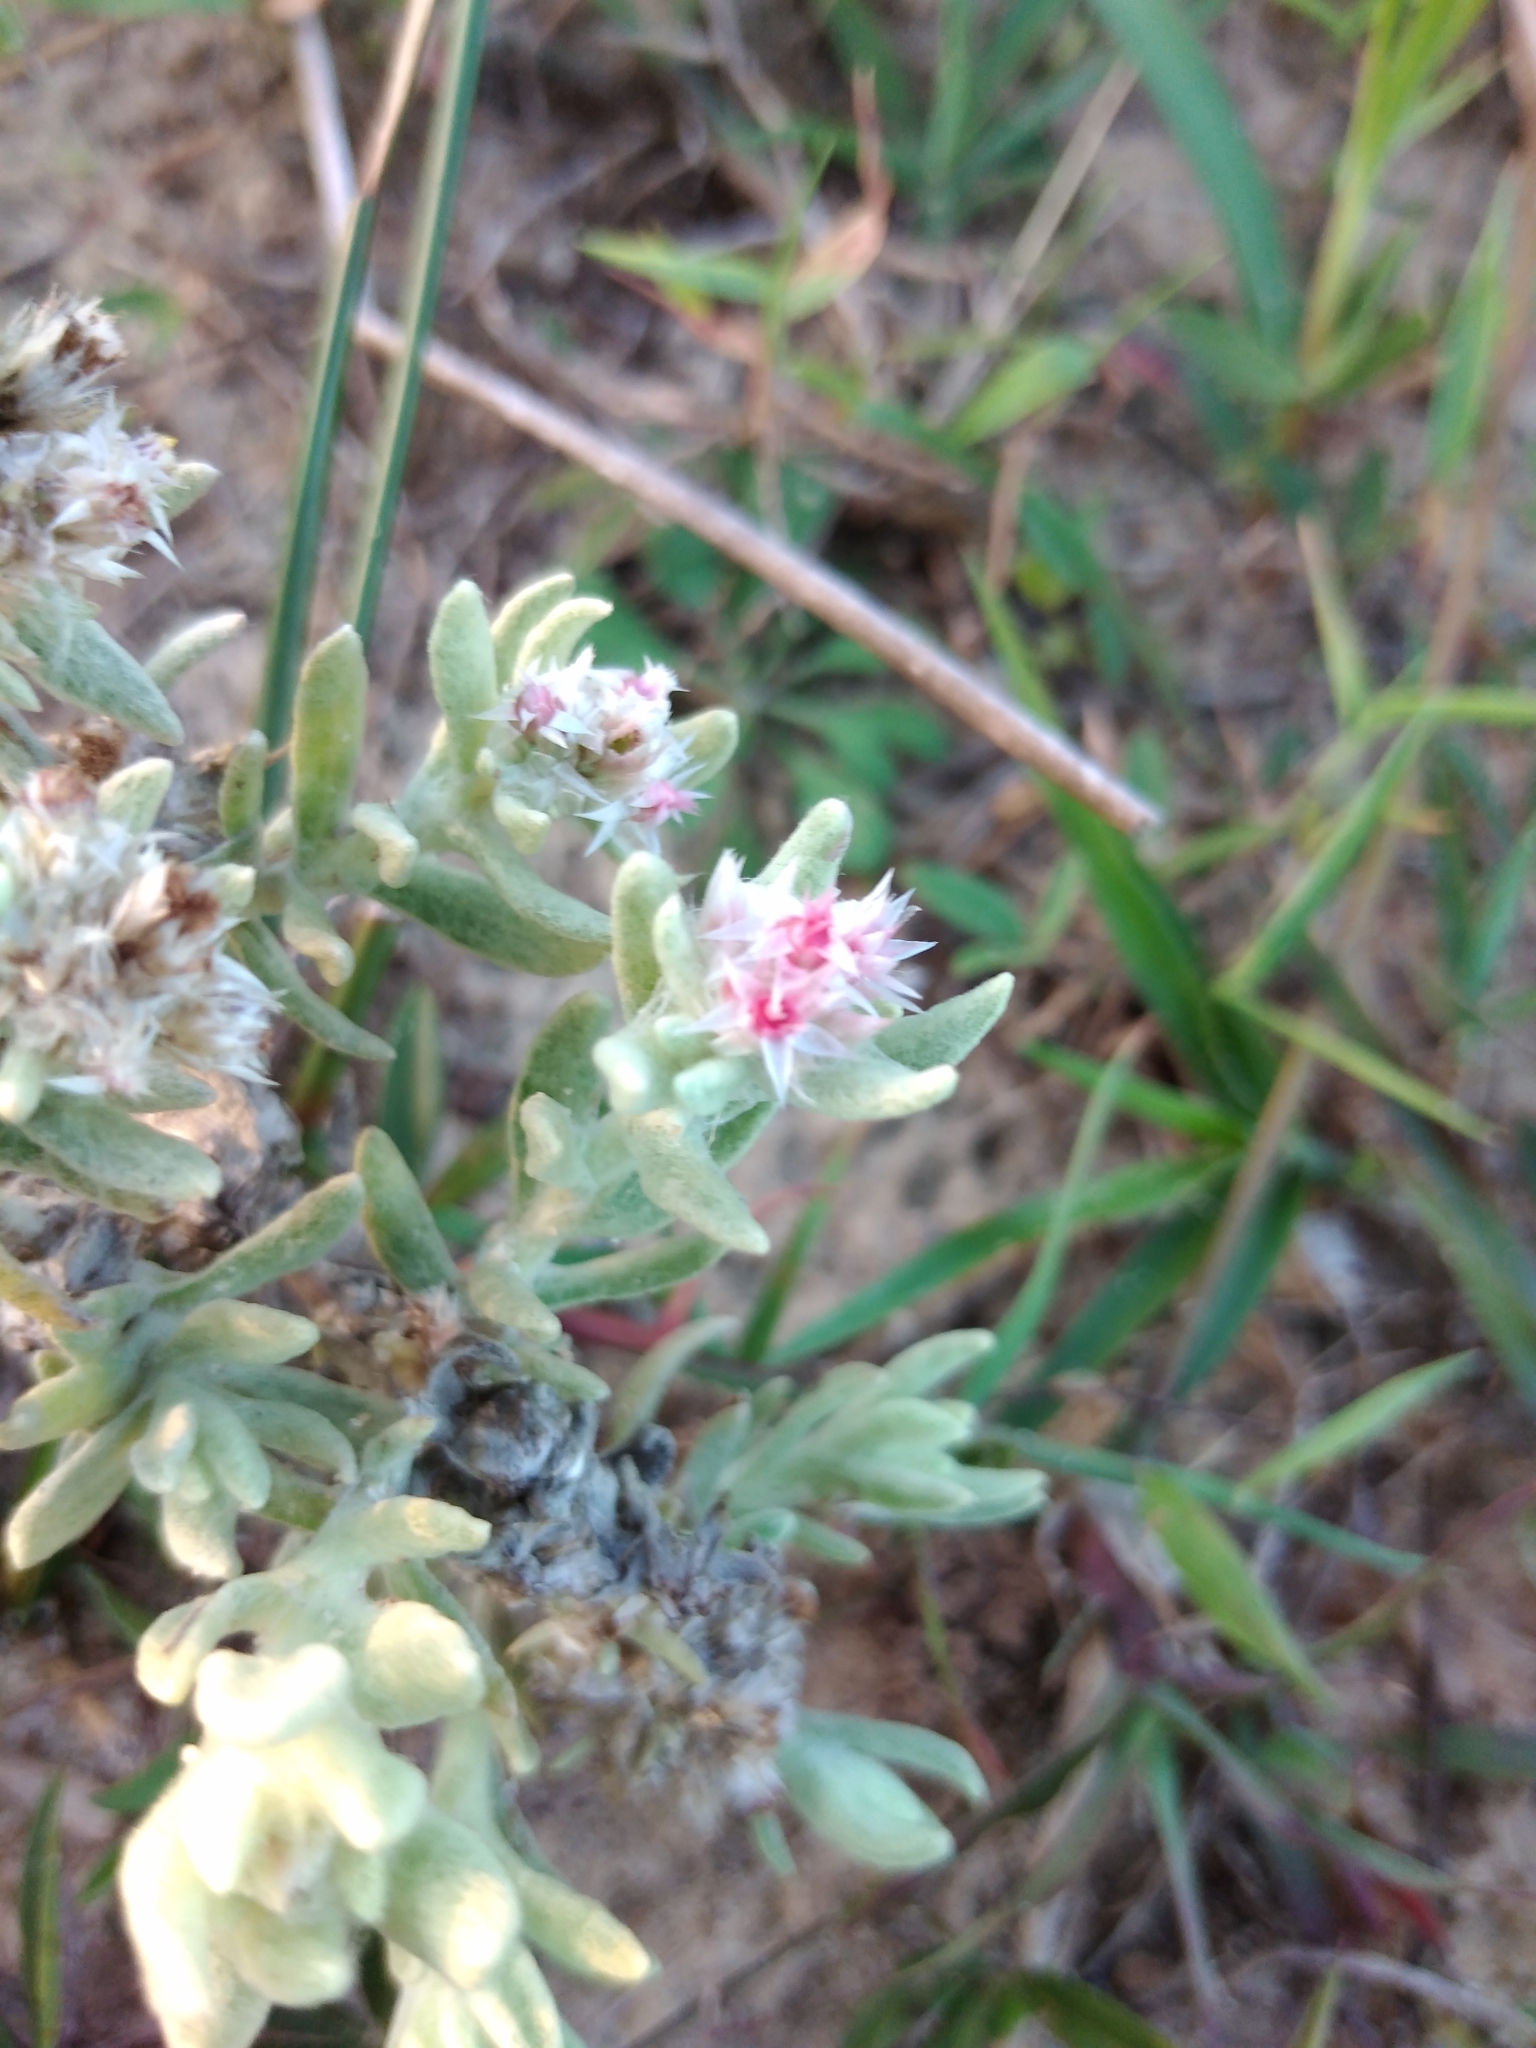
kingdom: Plantae
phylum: Tracheophyta
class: Magnoliopsida
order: Asterales
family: Asteraceae
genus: Helichrysum
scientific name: Helichrysum candolleanum
